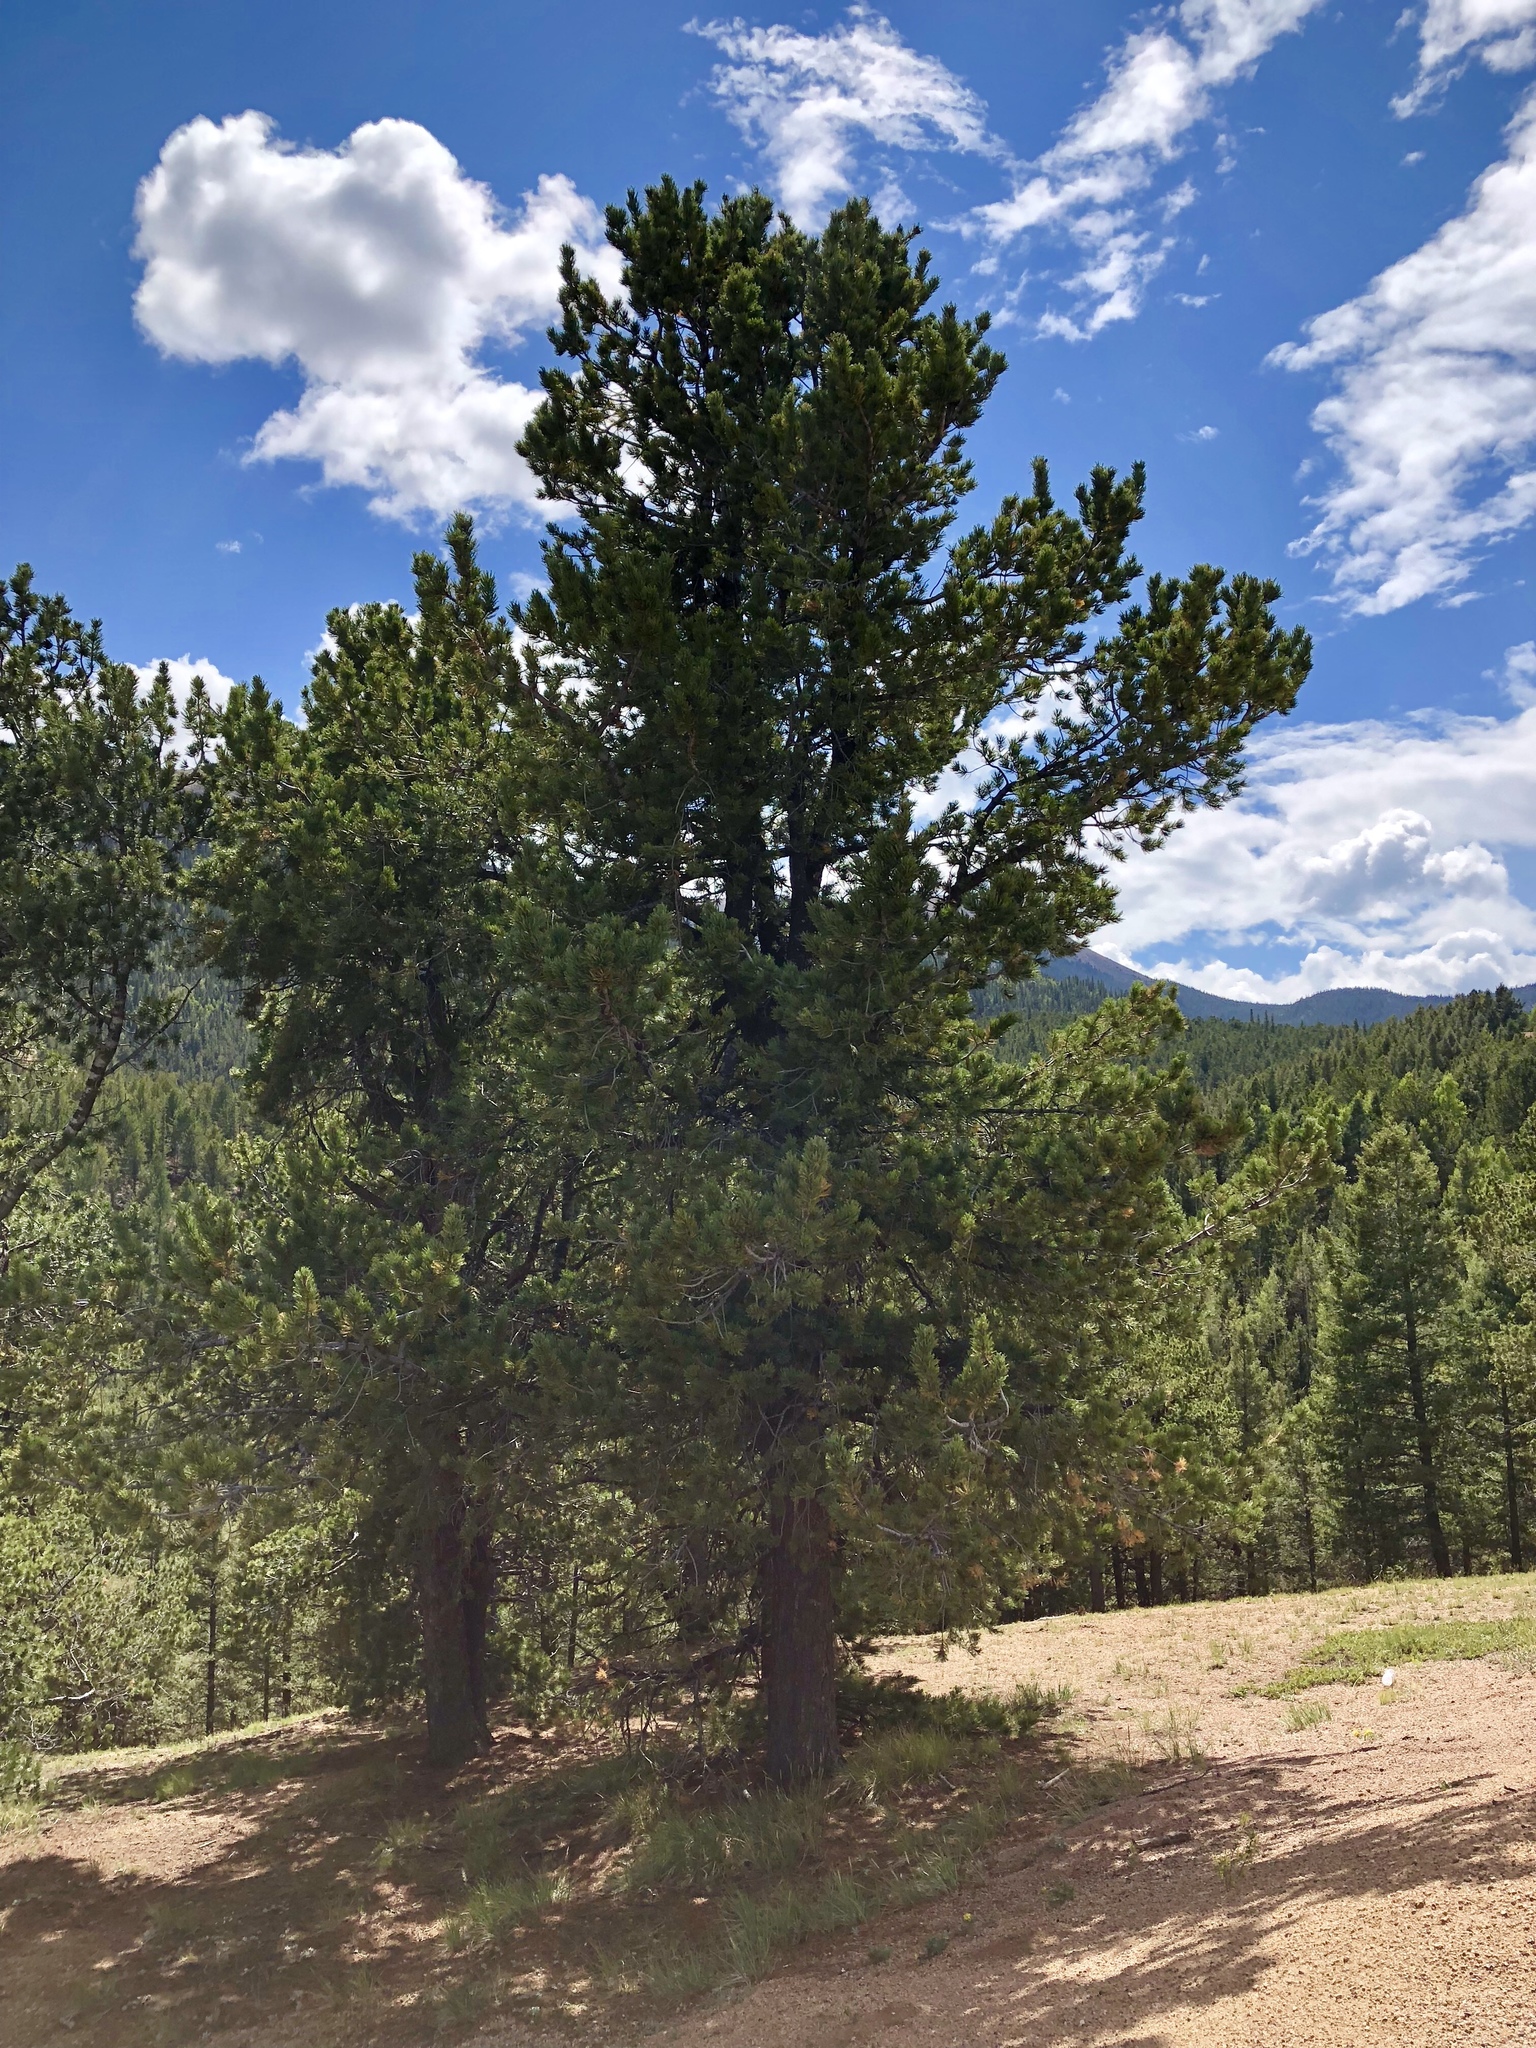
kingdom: Plantae
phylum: Tracheophyta
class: Pinopsida
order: Pinales
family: Pinaceae
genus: Pinus
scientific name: Pinus flexilis
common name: Limber pine
